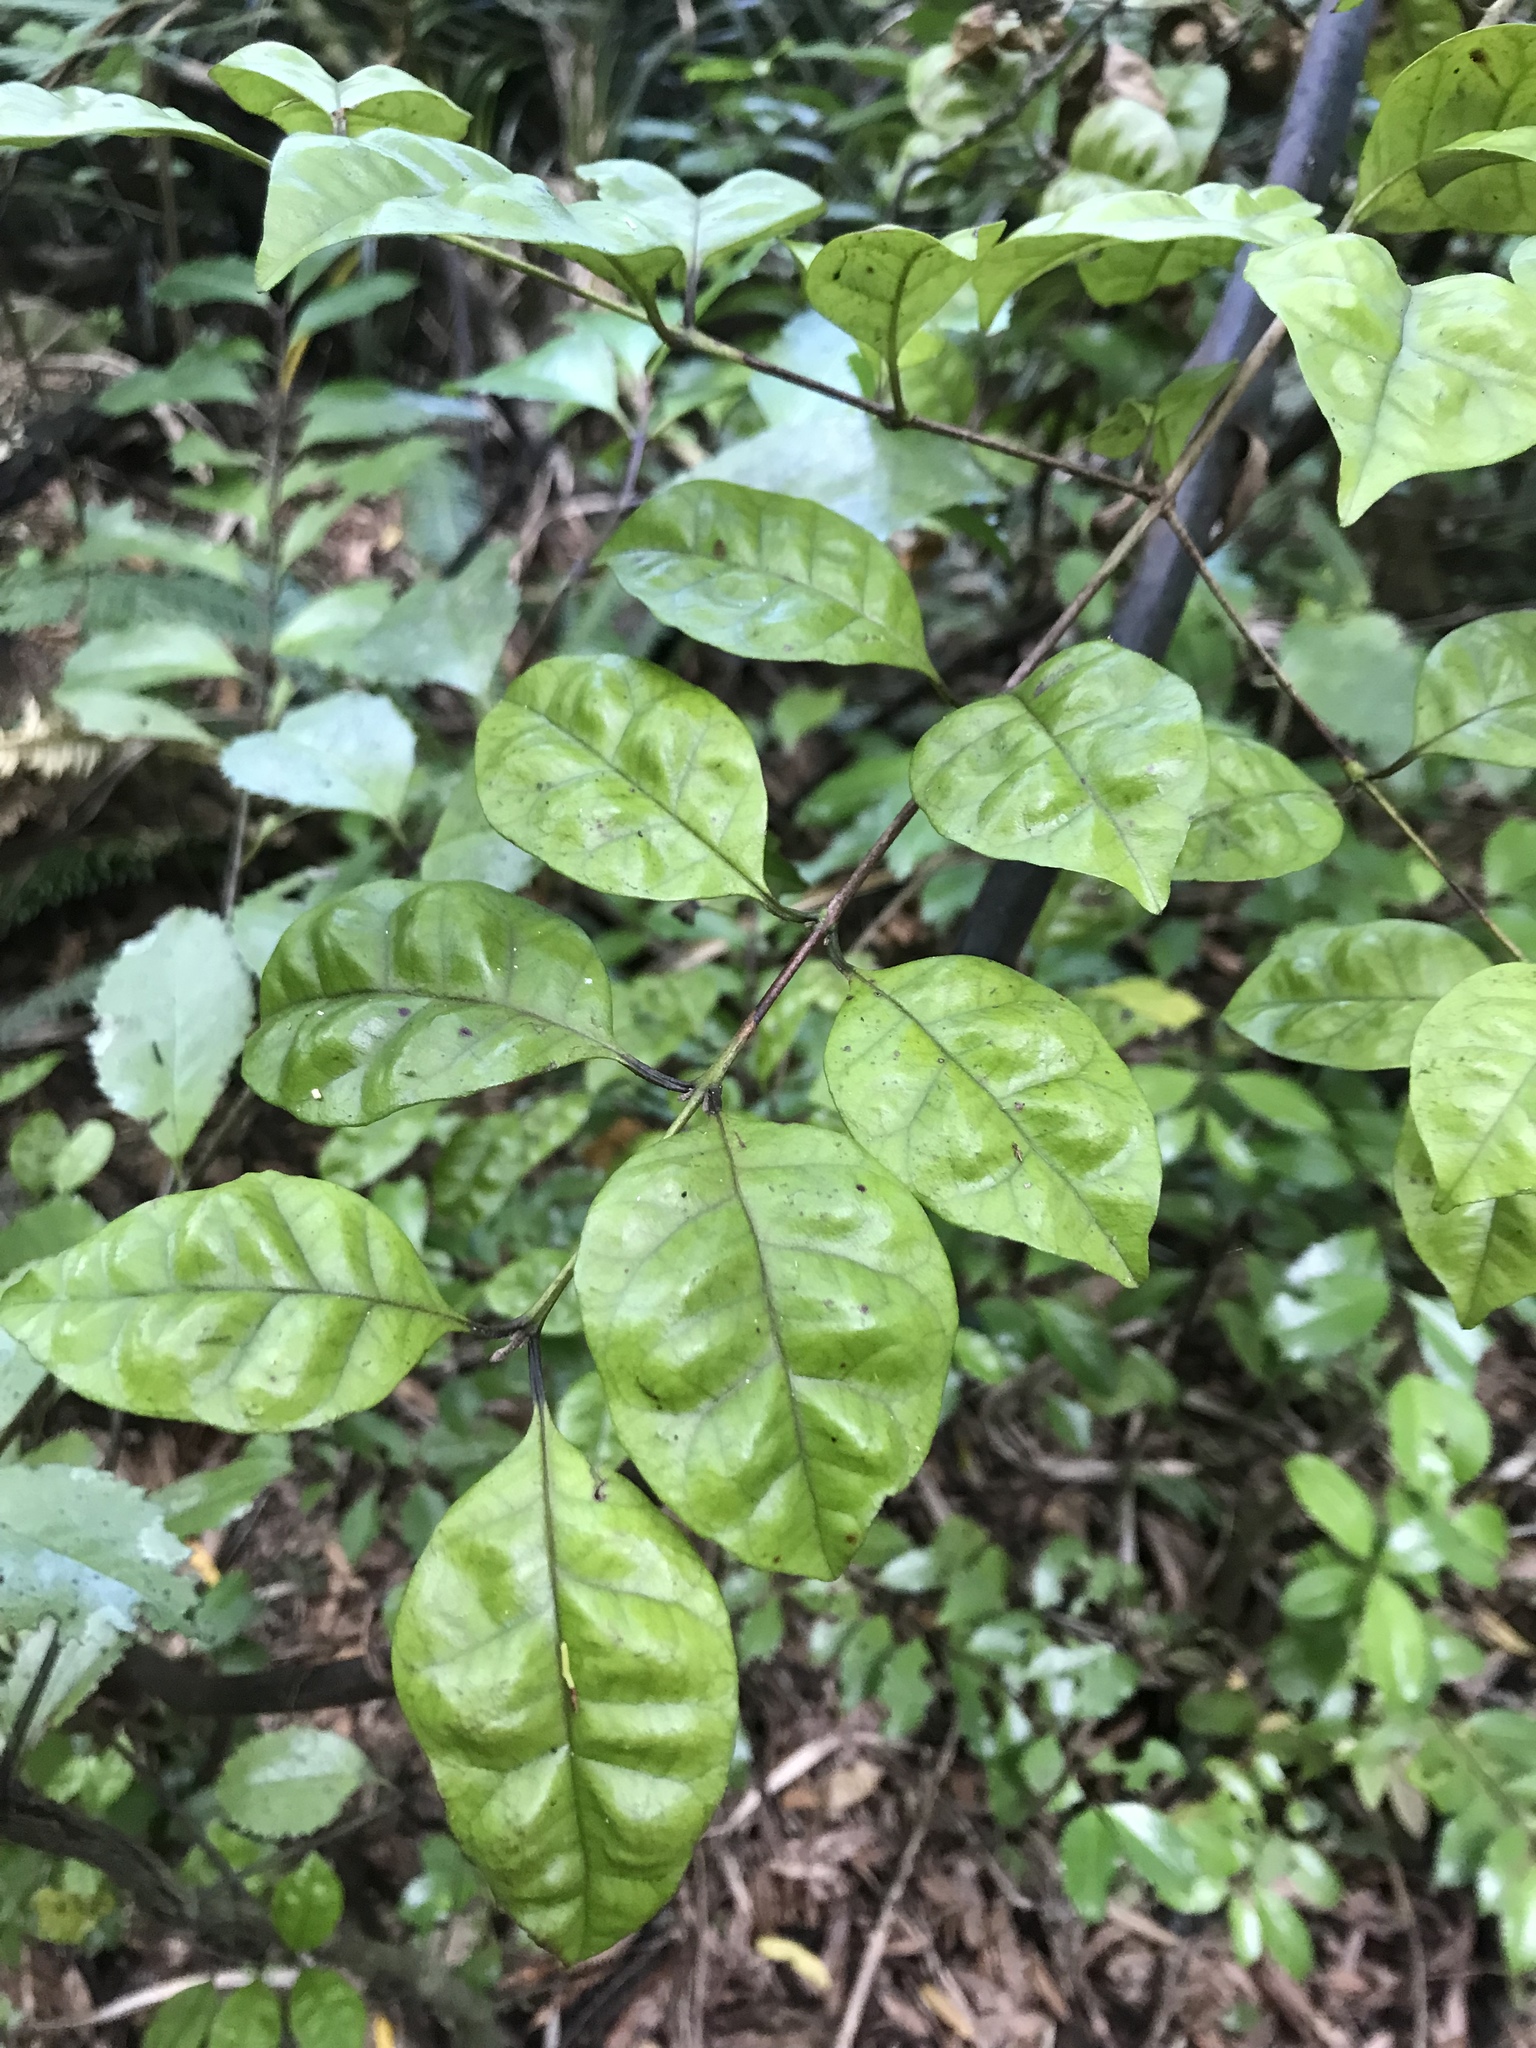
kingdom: Plantae
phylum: Tracheophyta
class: Magnoliopsida
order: Myrtales
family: Myrtaceae
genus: Lophomyrtus
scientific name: Lophomyrtus bullata
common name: Rama rama
